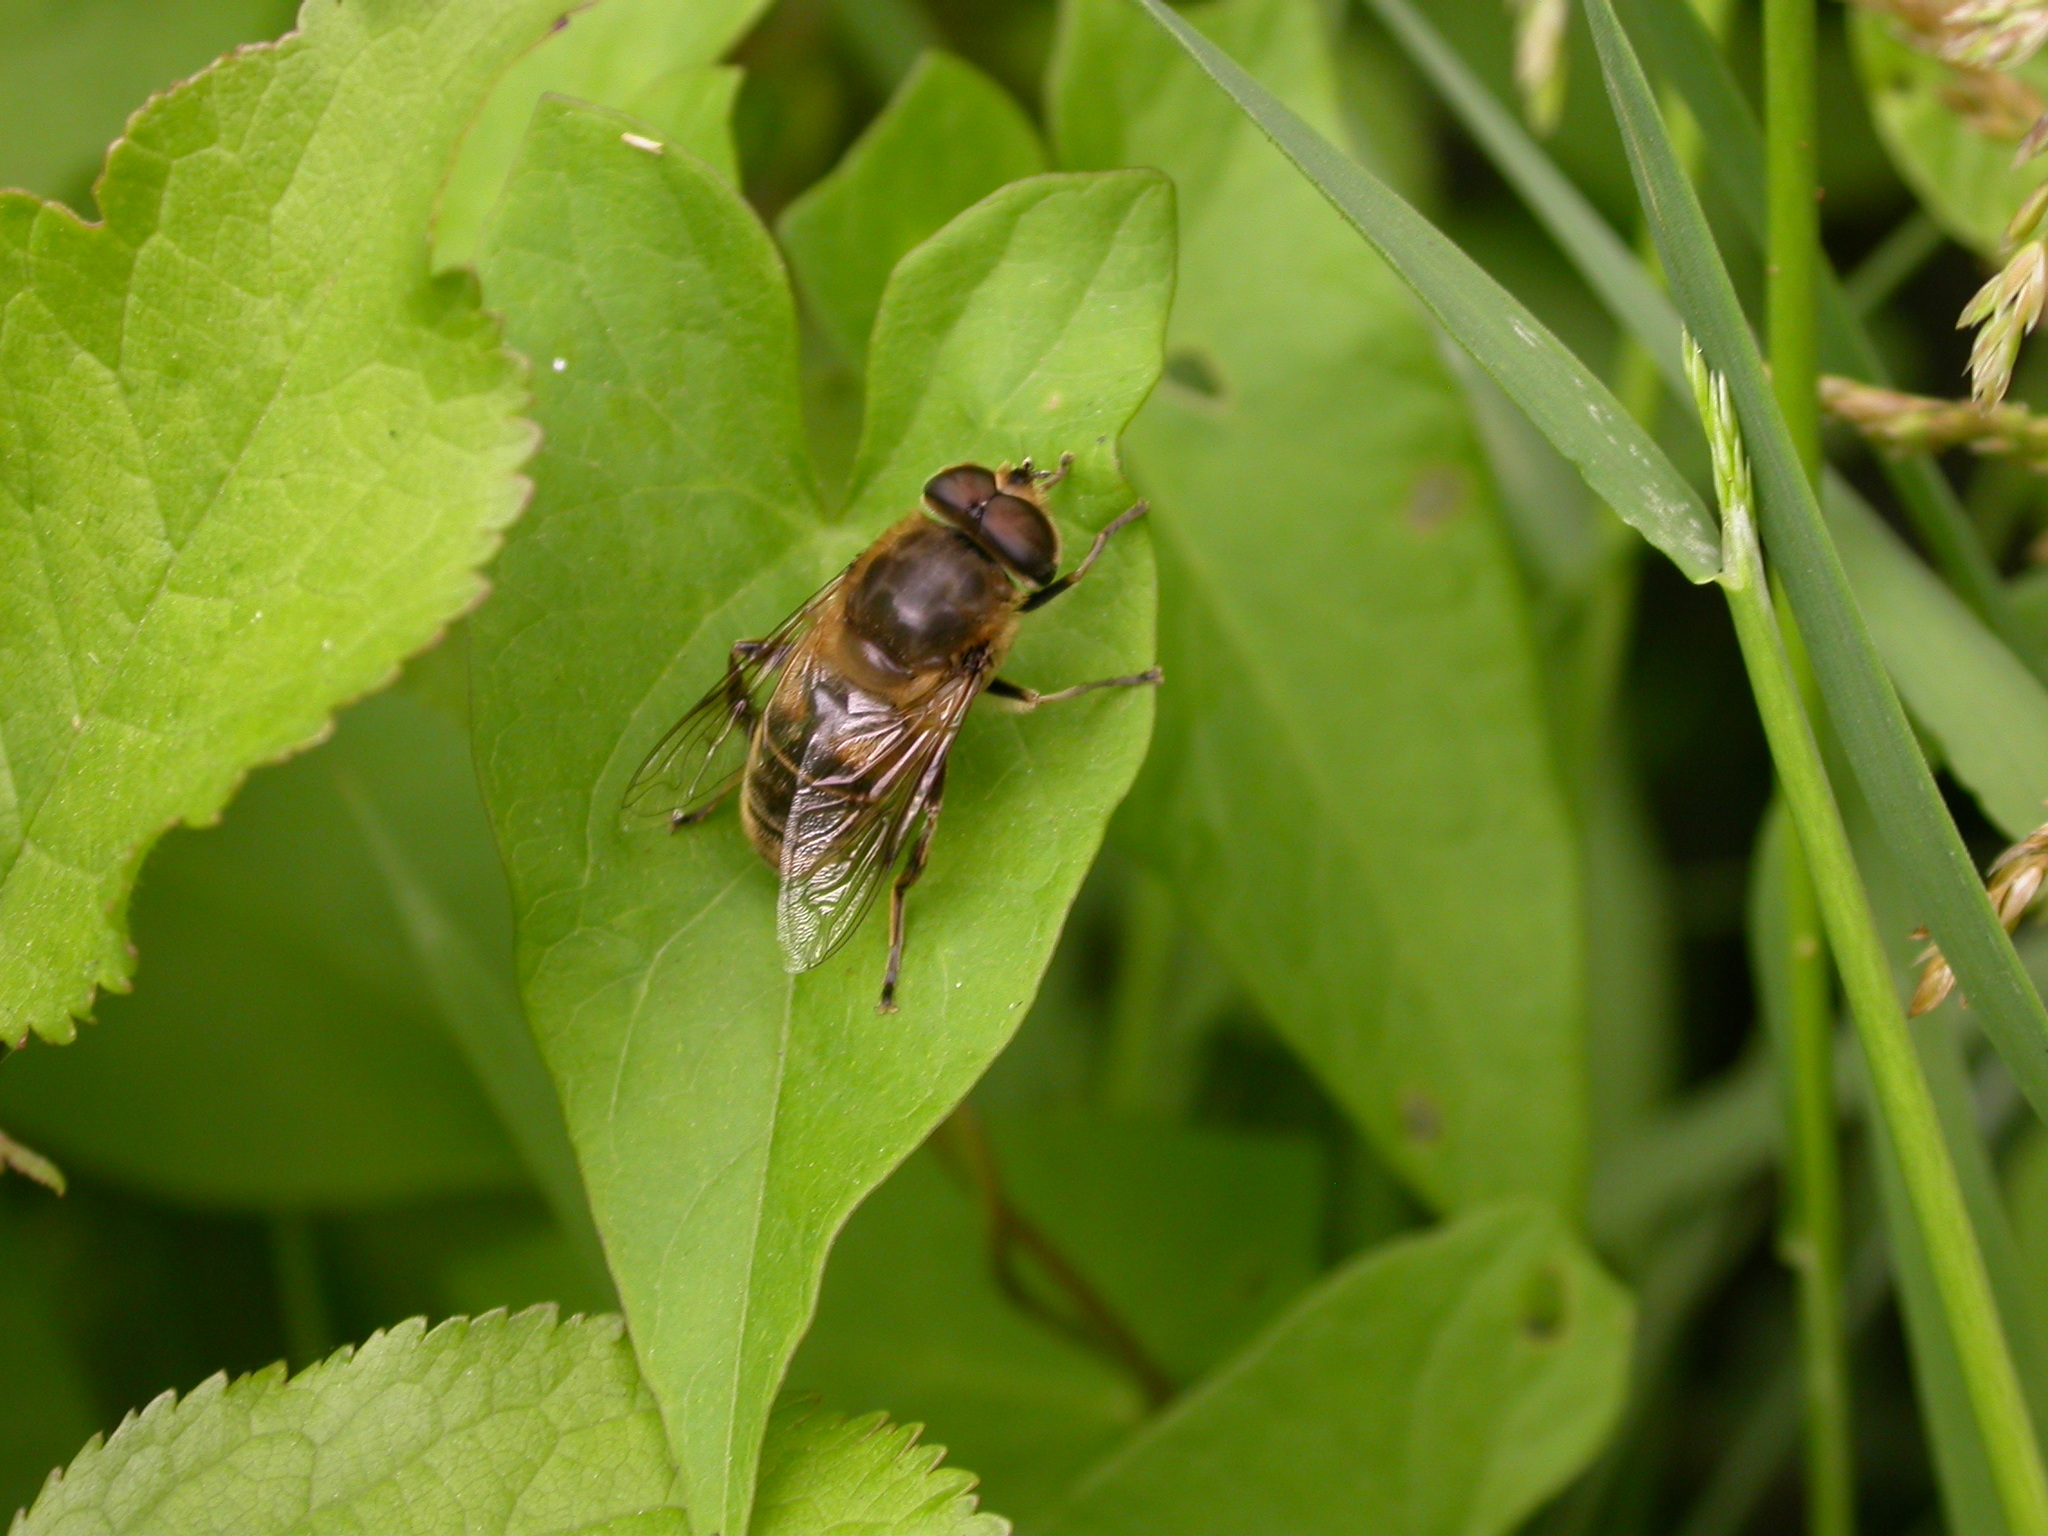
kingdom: Animalia
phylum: Arthropoda
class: Insecta
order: Diptera
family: Syrphidae
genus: Eristalis
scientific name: Eristalis tenax
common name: Drone fly
